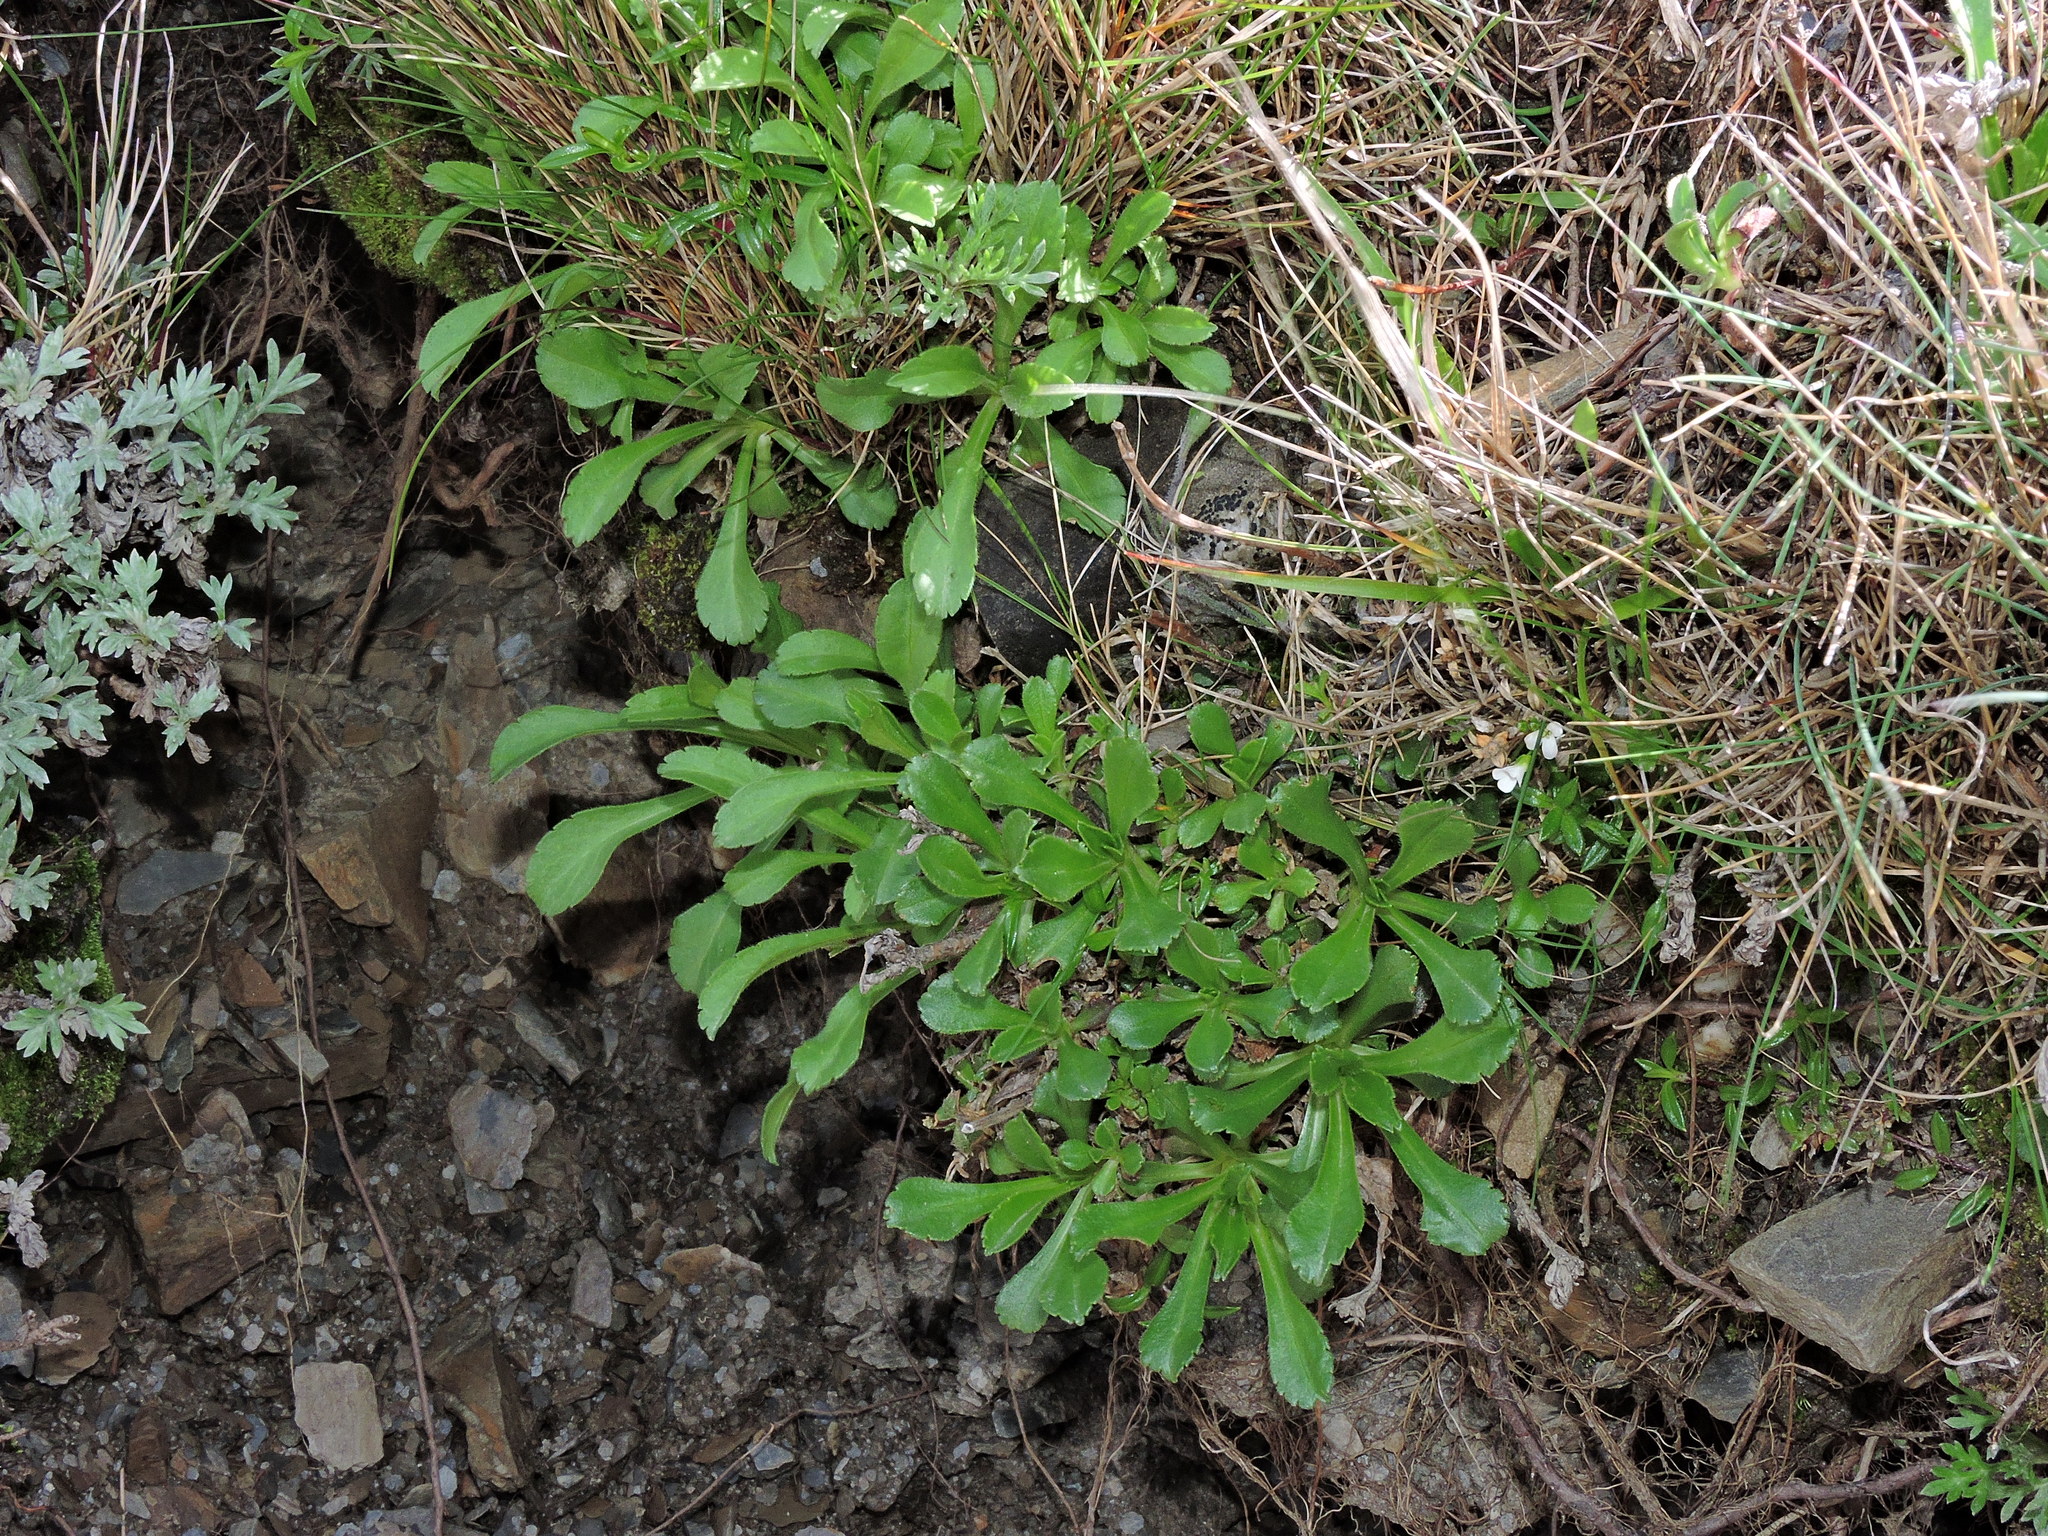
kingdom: Plantae
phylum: Tracheophyta
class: Magnoliopsida
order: Dipsacales
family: Caprifoliaceae
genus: Scabiosa
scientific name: Scabiosa lacerifolia
